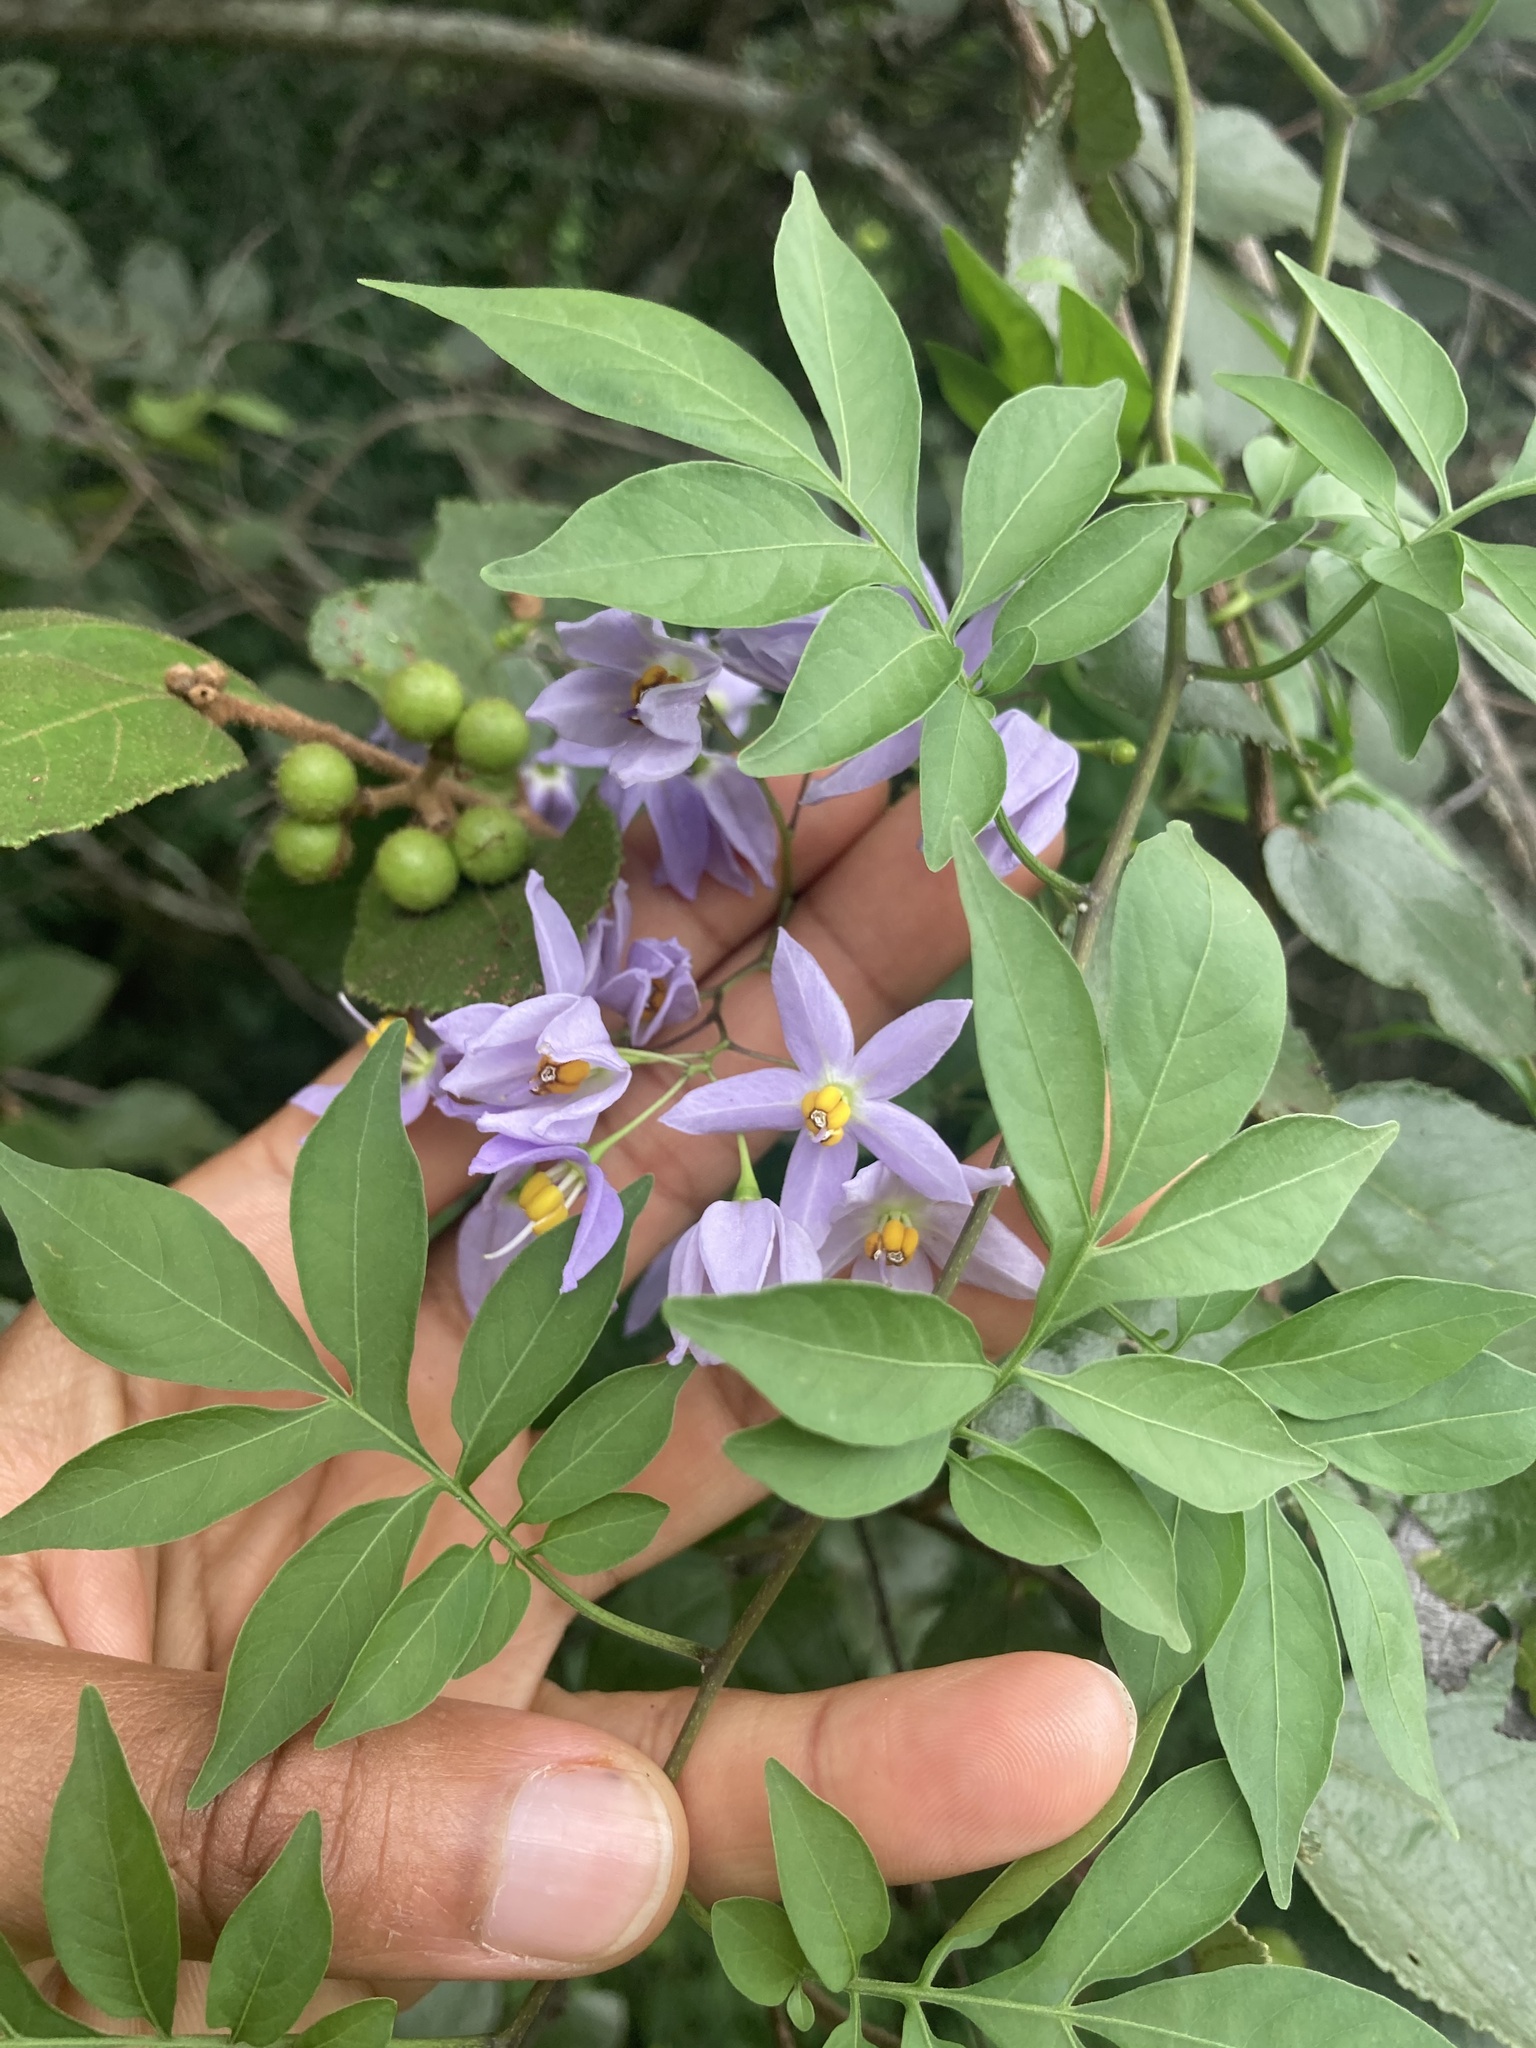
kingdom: Plantae
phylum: Tracheophyta
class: Magnoliopsida
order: Solanales
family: Solanaceae
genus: Solanum
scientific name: Solanum seaforthianum
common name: Brazilian nightshade
